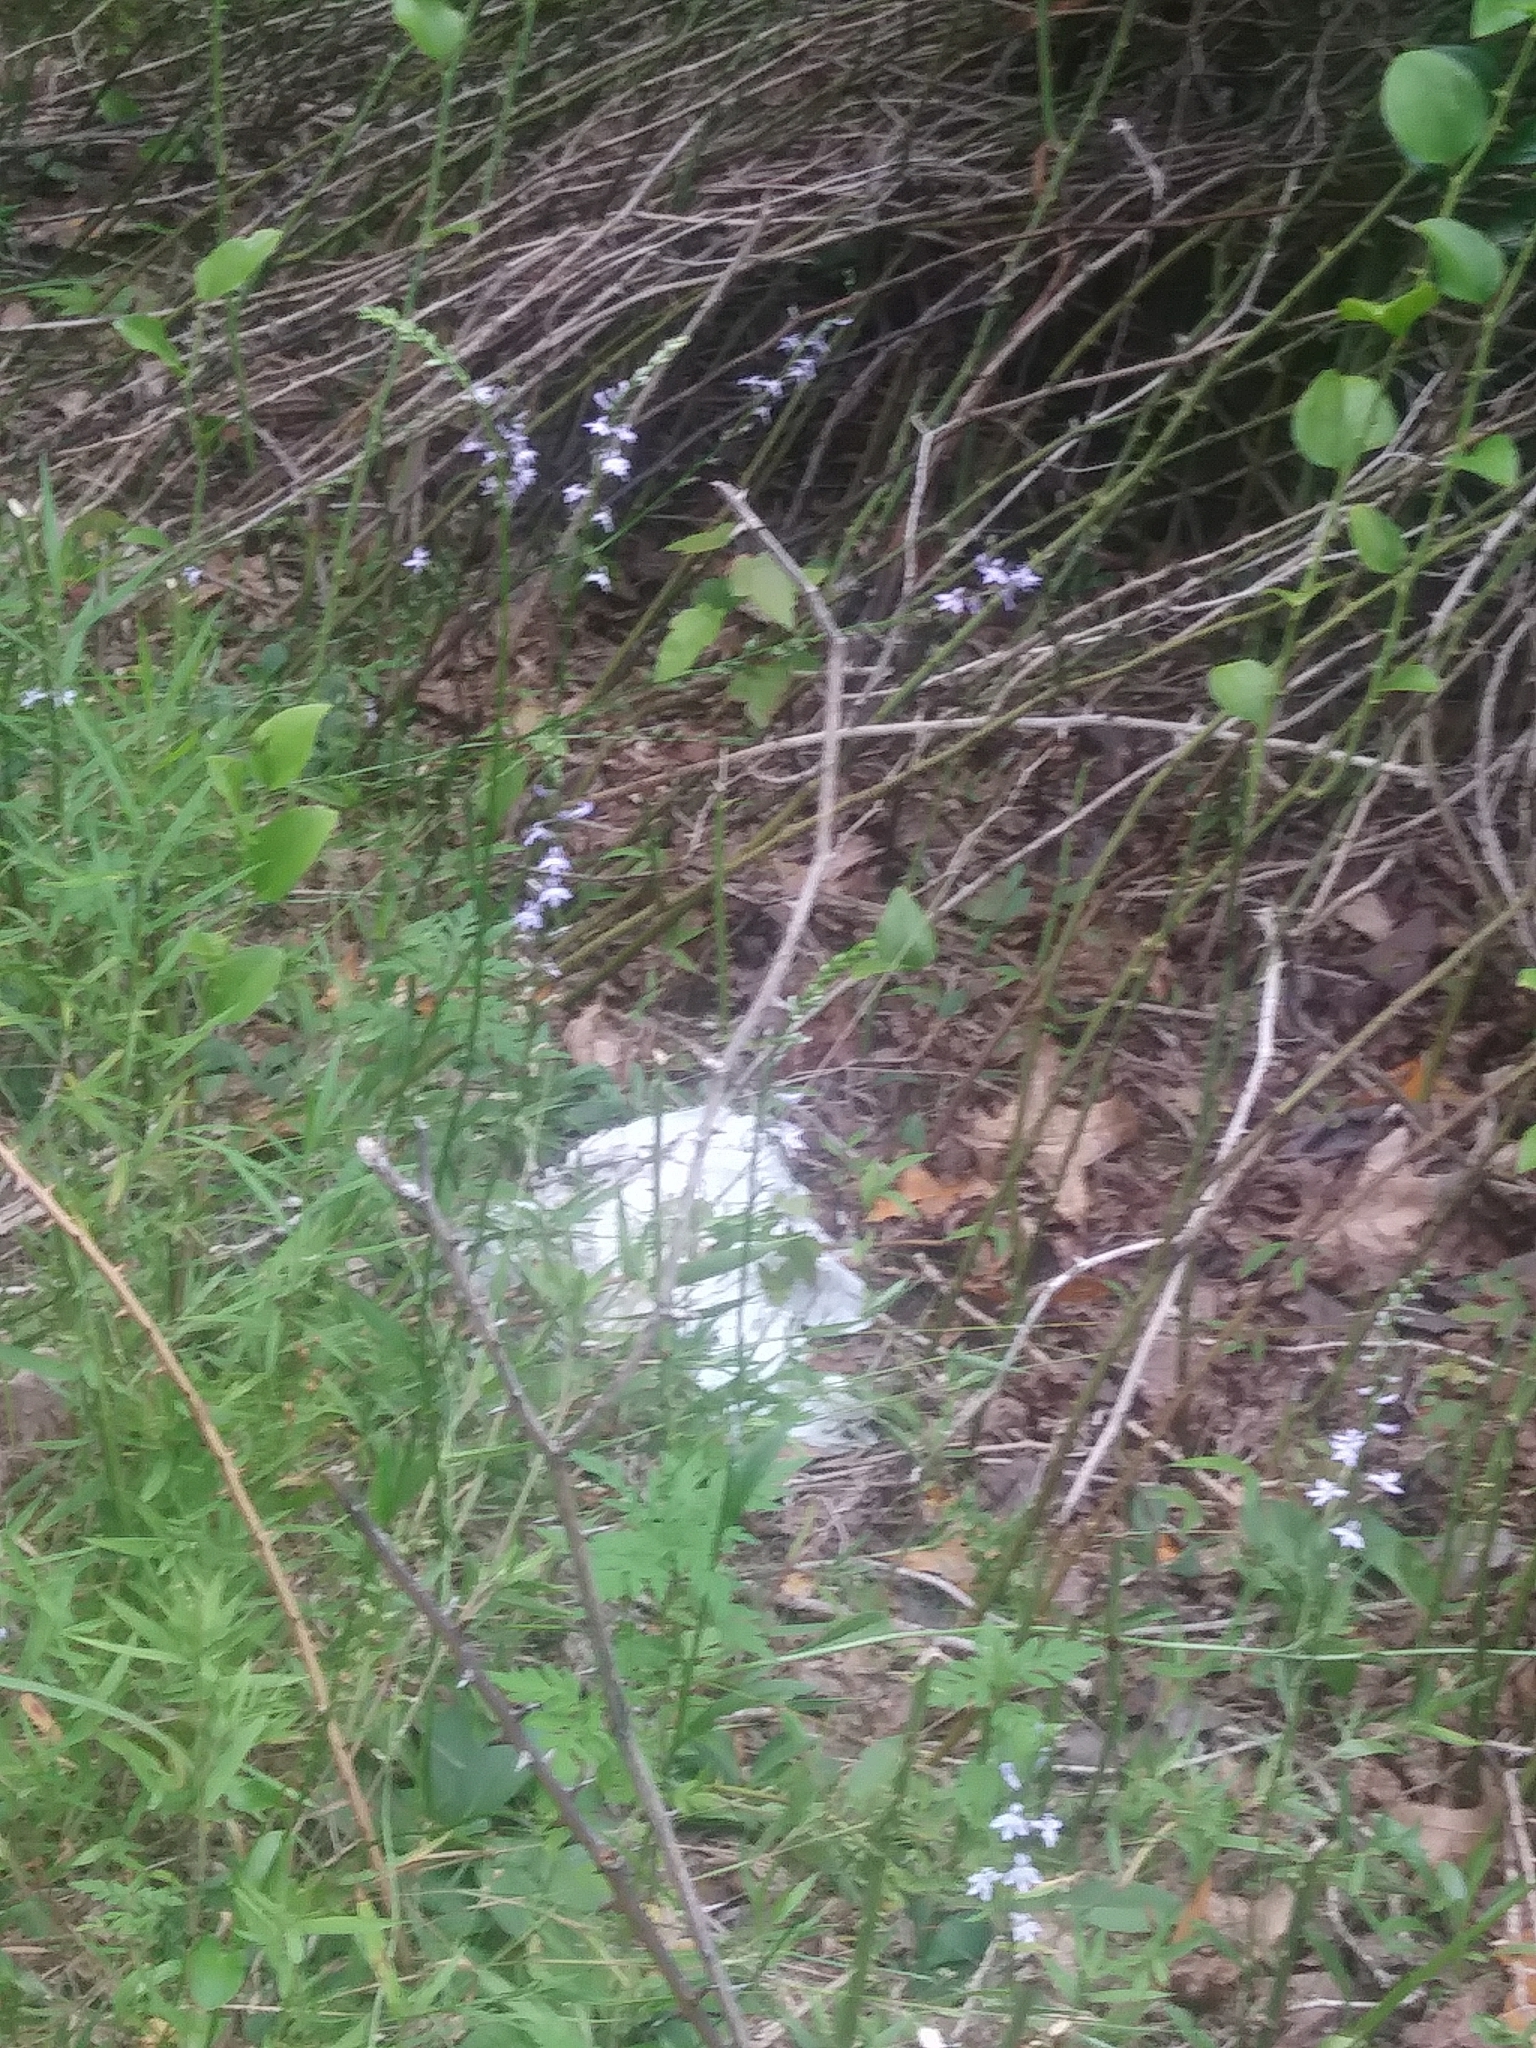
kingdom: Plantae
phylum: Tracheophyta
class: Magnoliopsida
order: Asterales
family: Campanulaceae
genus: Lobelia
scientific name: Lobelia spicata
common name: Pale-spike lobelia
